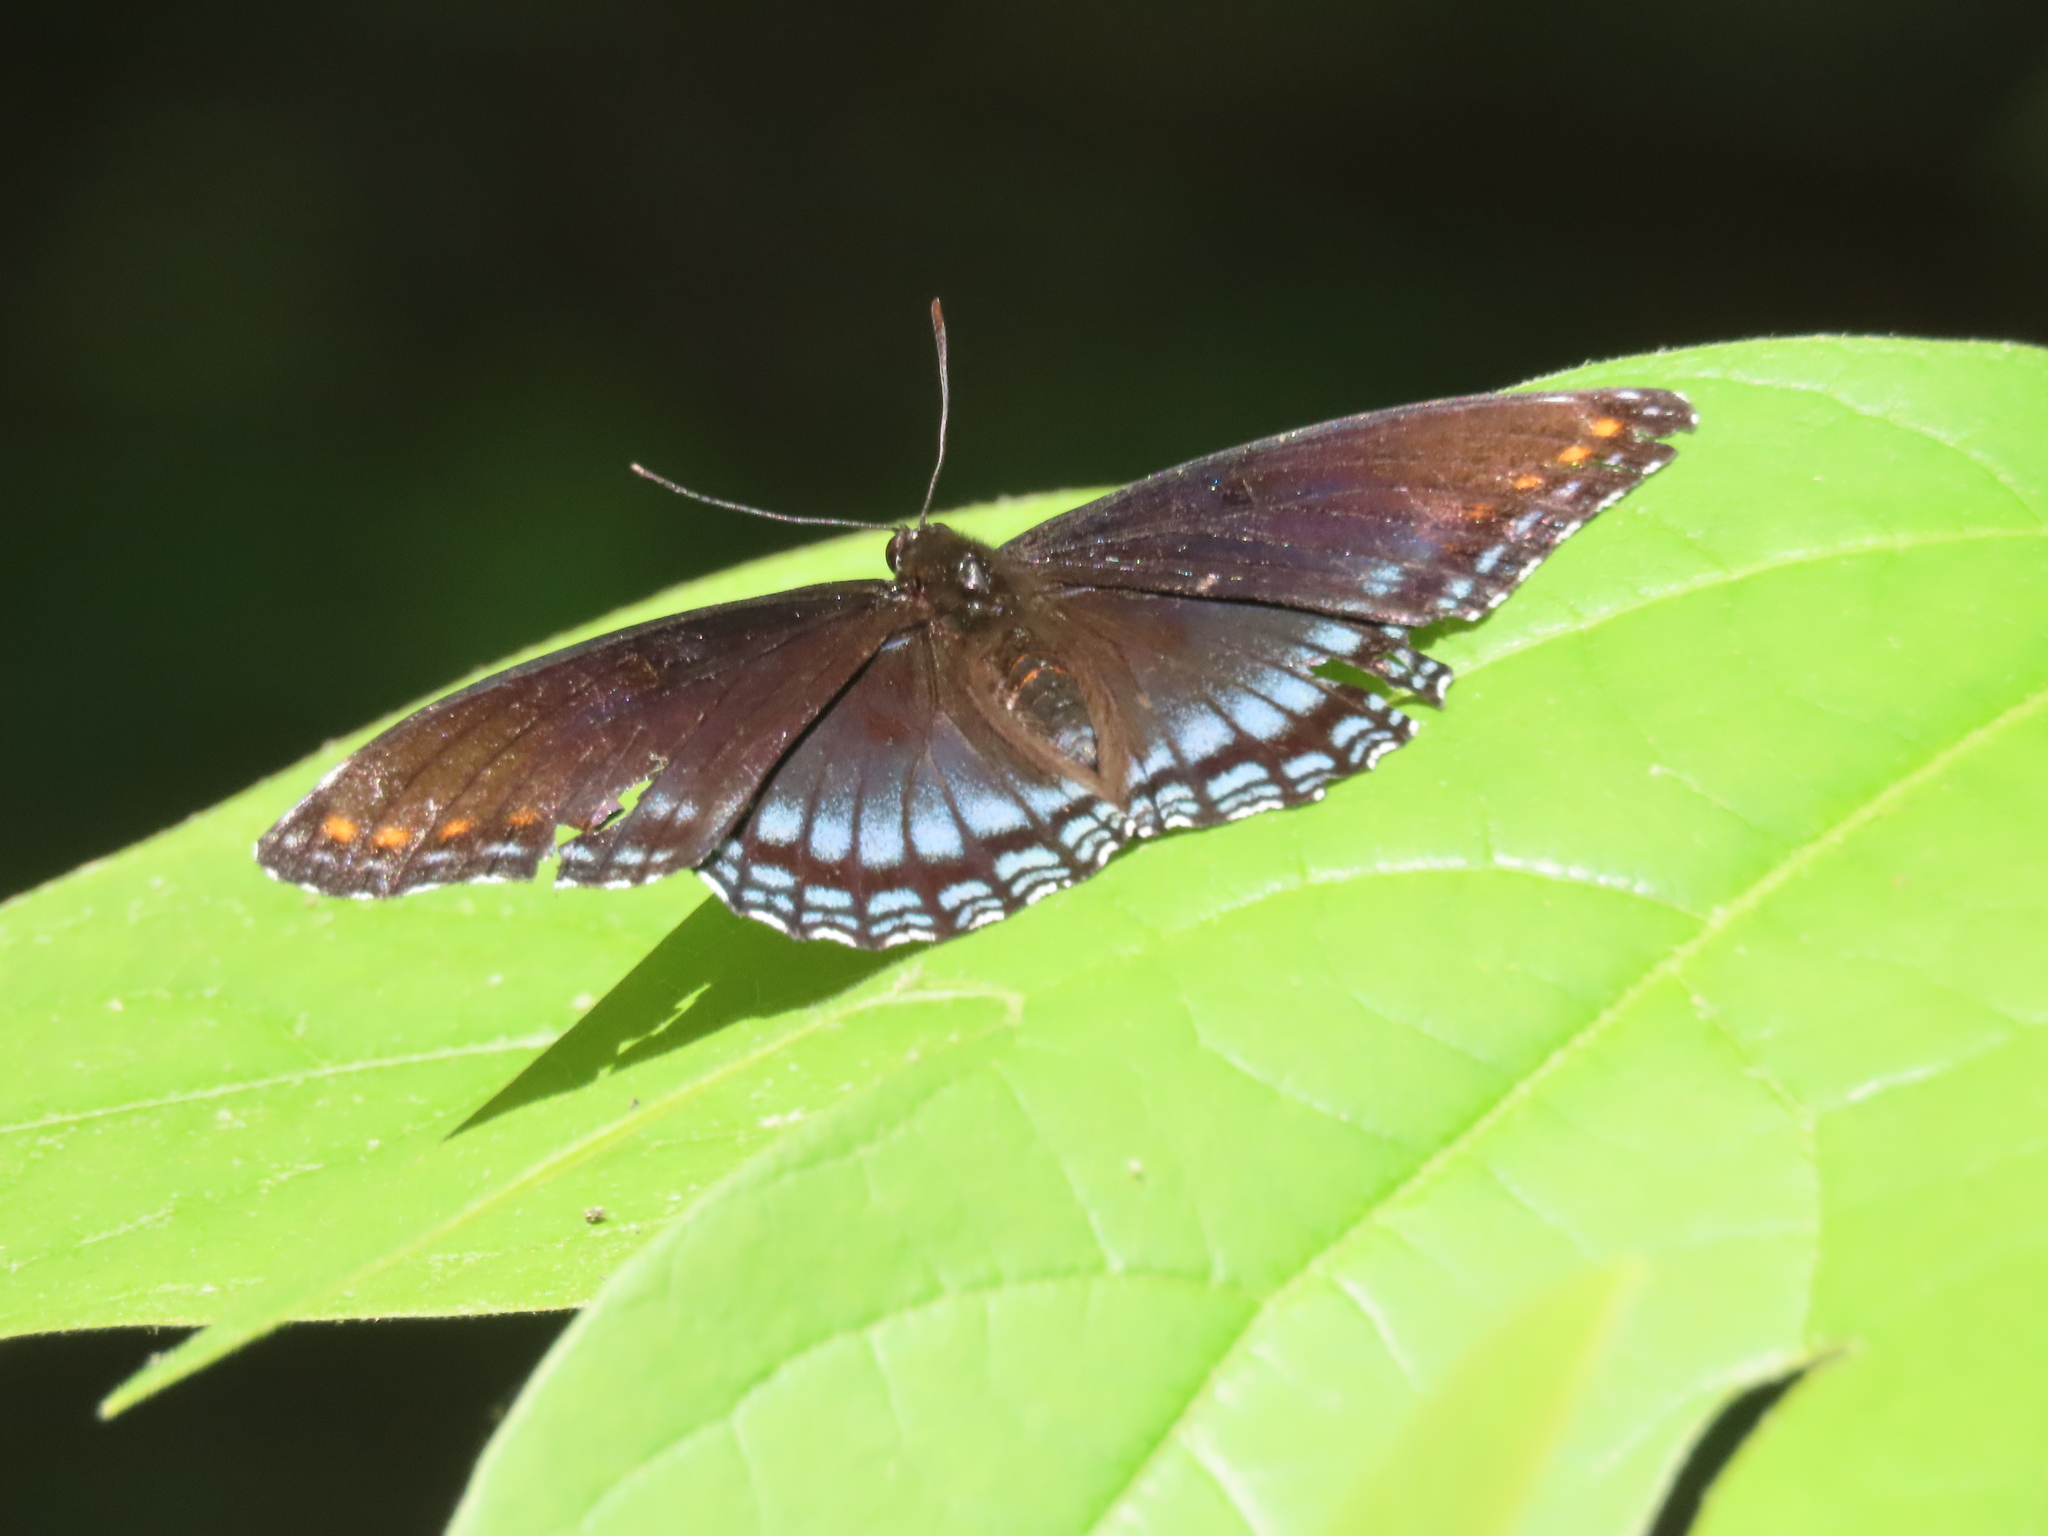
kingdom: Animalia
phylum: Arthropoda
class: Insecta
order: Lepidoptera
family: Nymphalidae
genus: Limenitis
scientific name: Limenitis astyanax
